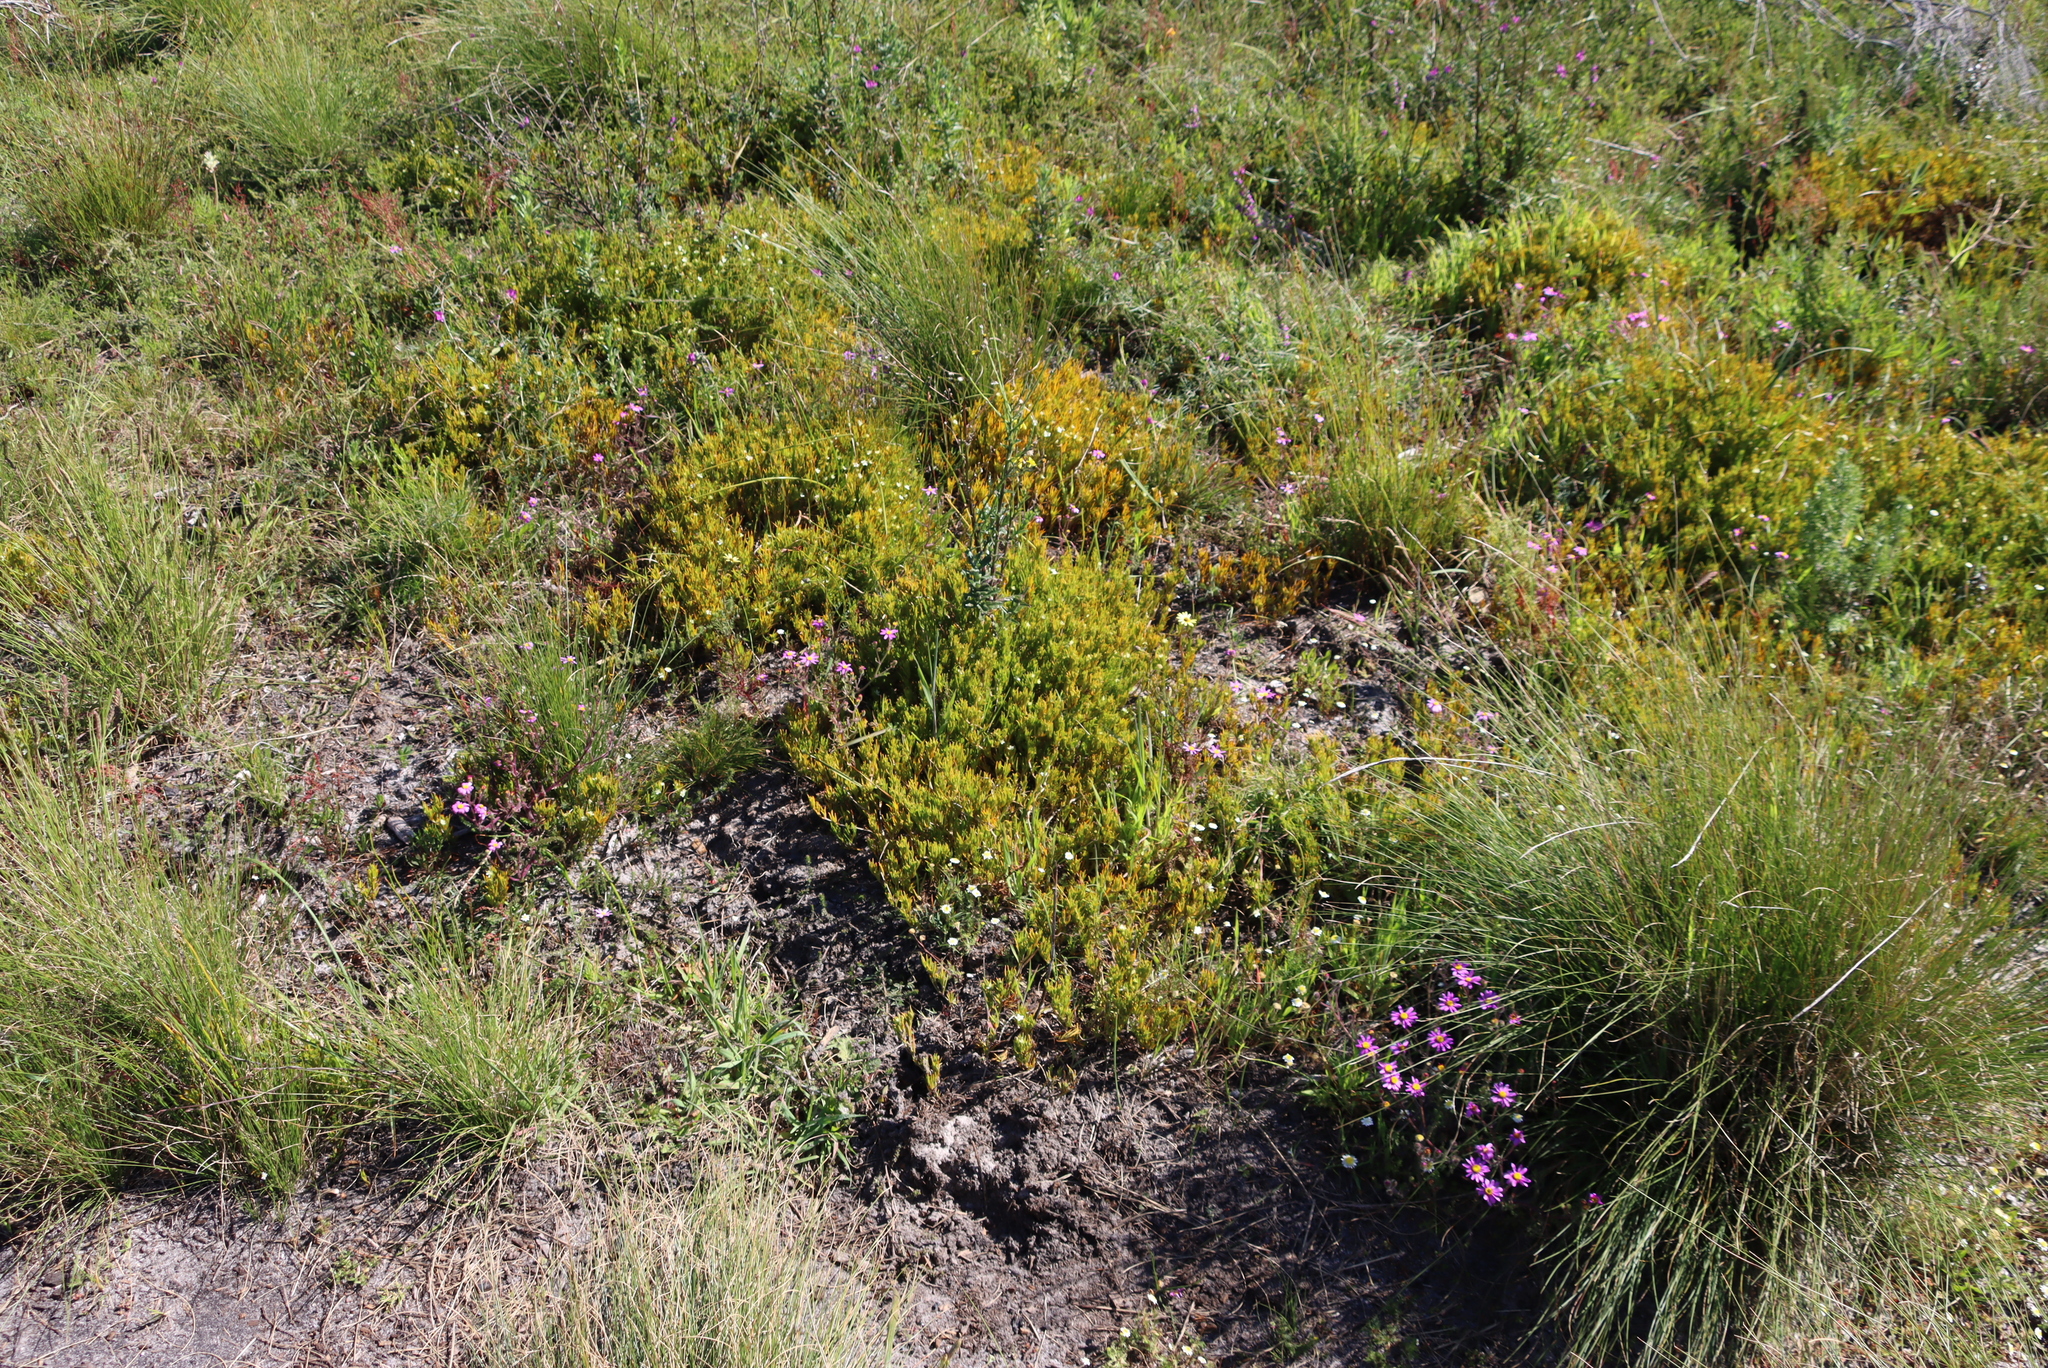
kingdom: Plantae
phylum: Tracheophyta
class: Magnoliopsida
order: Caryophyllales
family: Aizoaceae
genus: Acrosanthes
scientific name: Acrosanthes teretifolia
